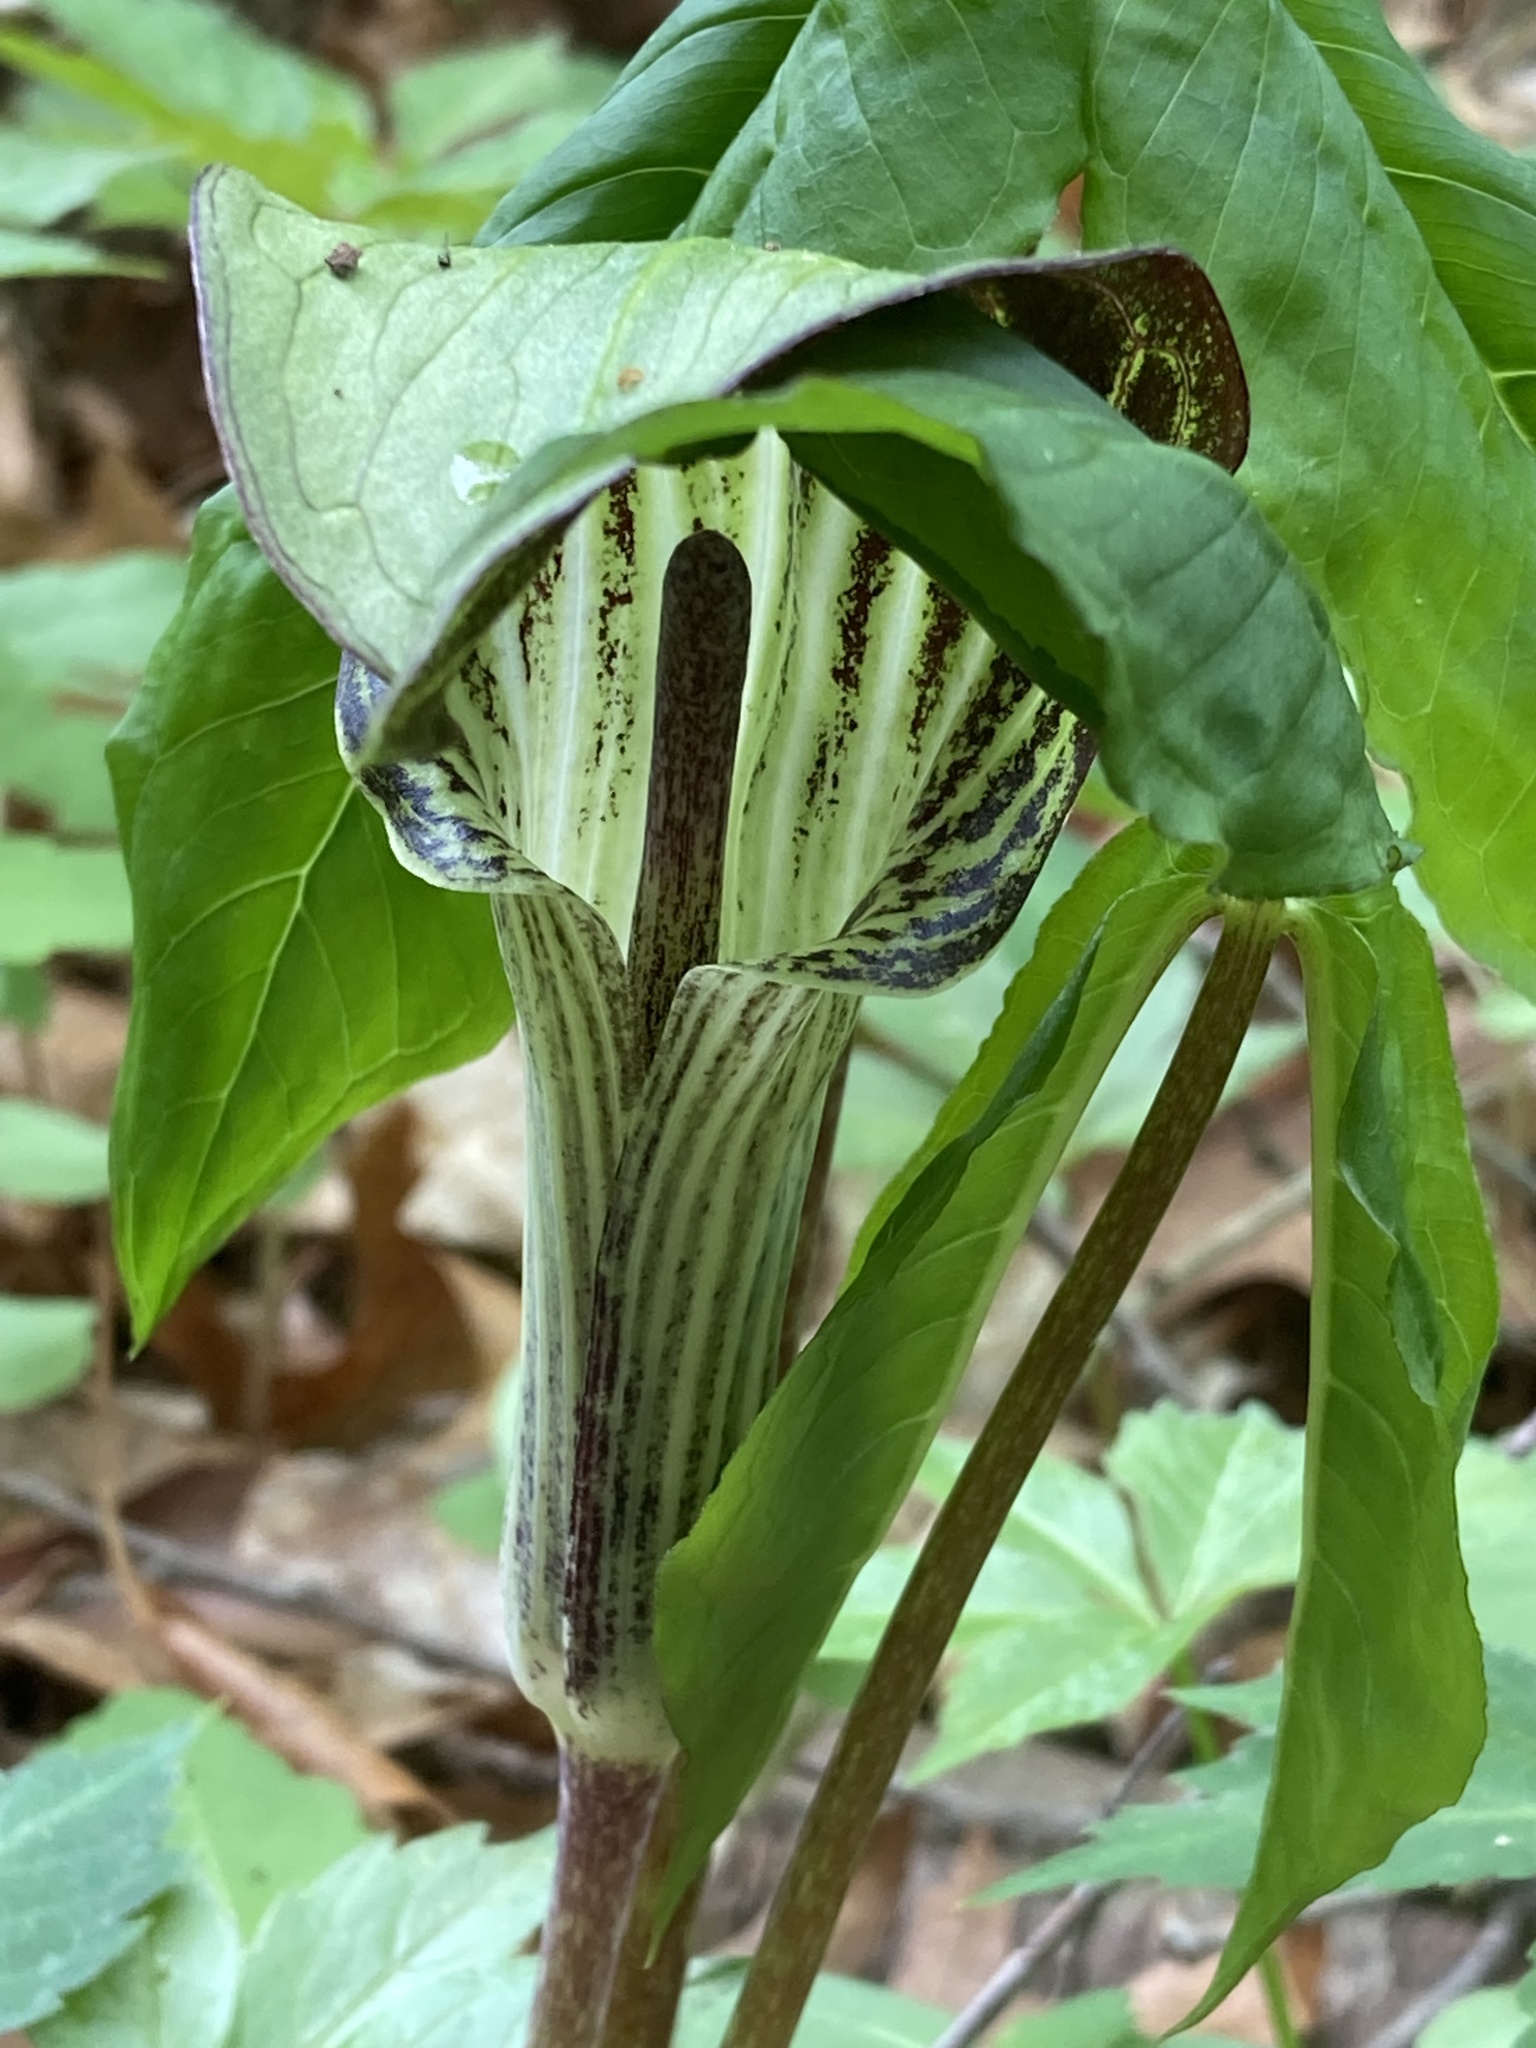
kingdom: Plantae
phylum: Tracheophyta
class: Liliopsida
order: Alismatales
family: Araceae
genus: Arisaema
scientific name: Arisaema triphyllum
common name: Jack-in-the-pulpit
